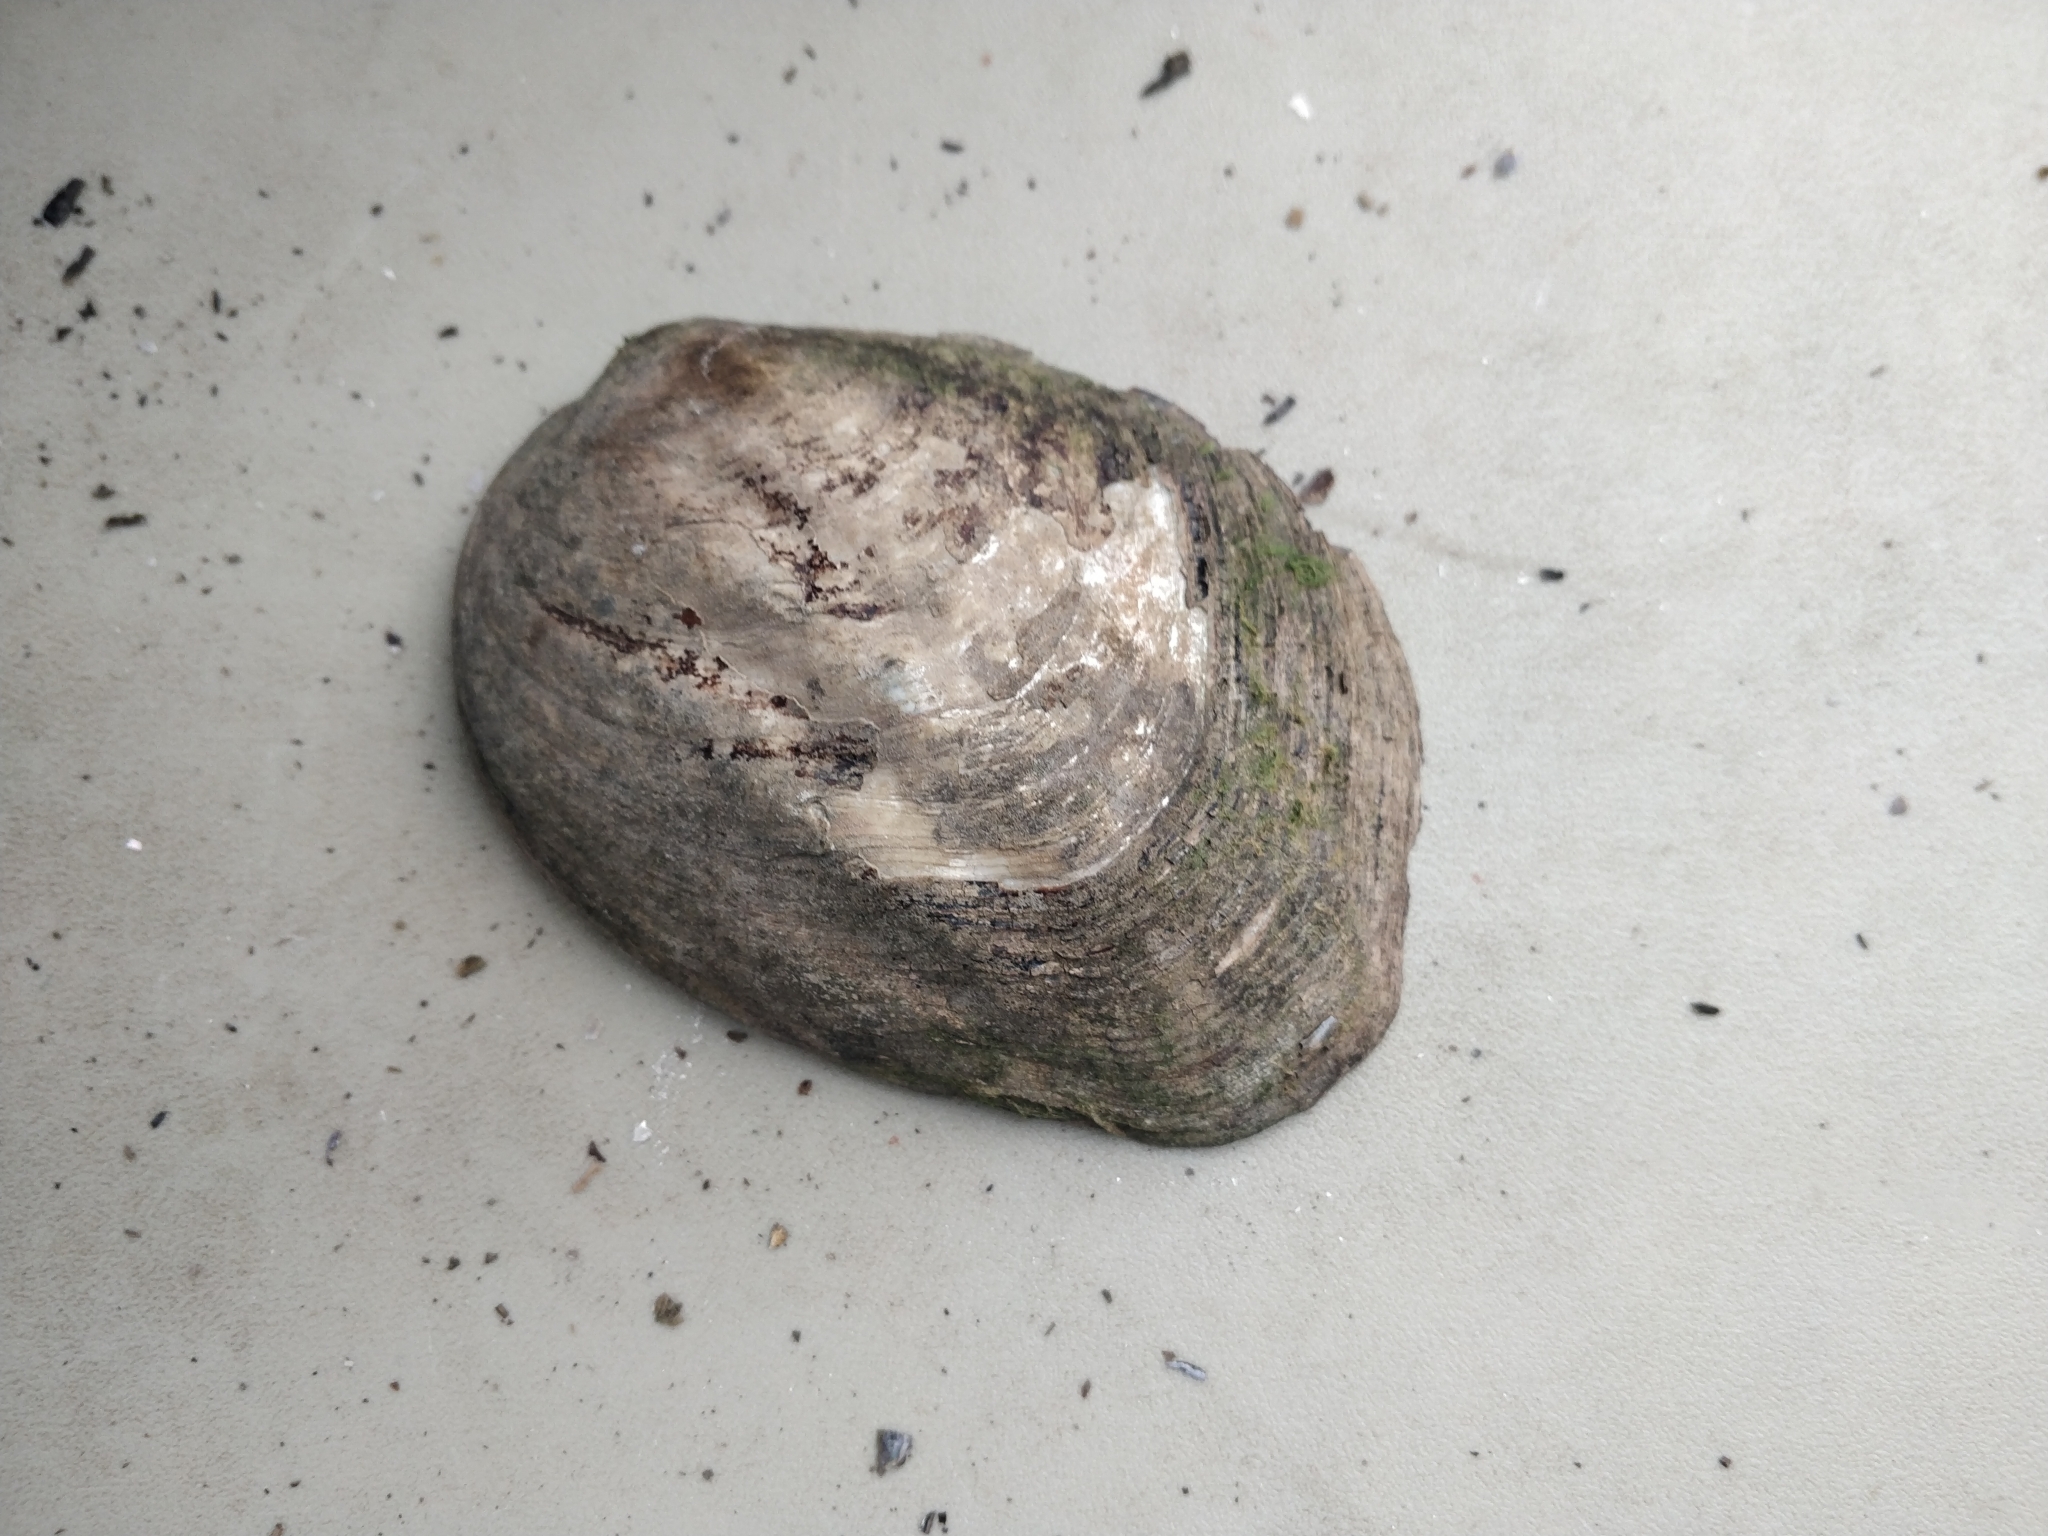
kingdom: Animalia
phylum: Mollusca
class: Bivalvia
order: Unionida
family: Unionidae
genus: Amblema
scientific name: Amblema plicata
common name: Threeridge
